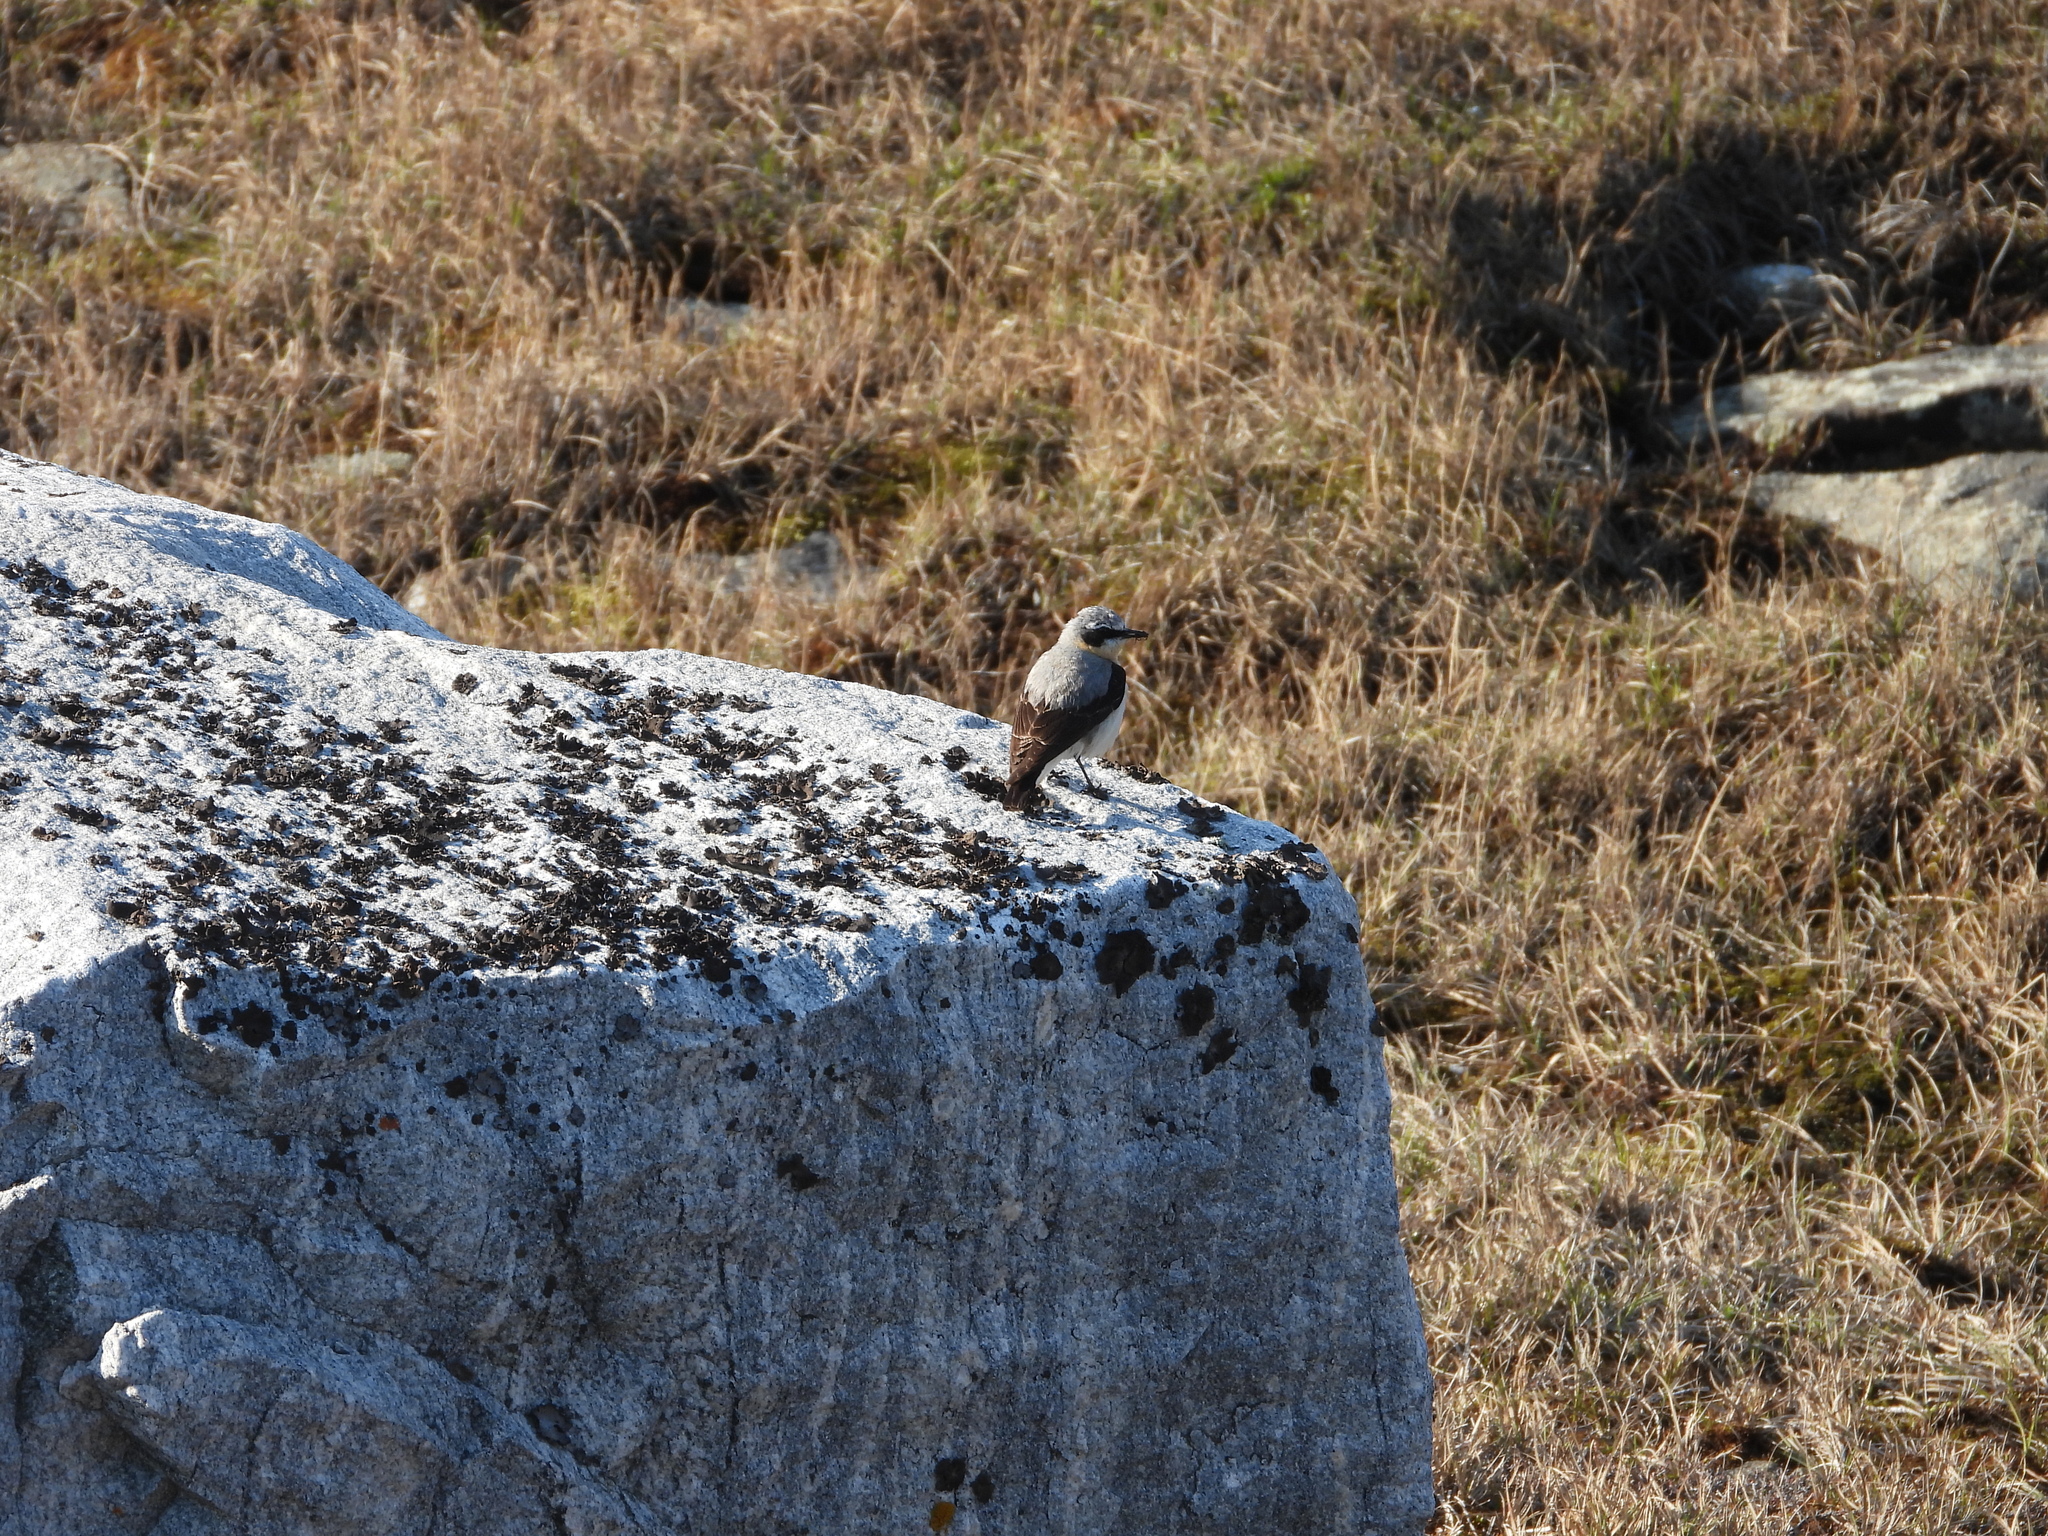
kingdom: Animalia
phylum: Chordata
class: Aves
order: Passeriformes
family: Muscicapidae
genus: Oenanthe
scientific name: Oenanthe oenanthe
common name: Northern wheatear
